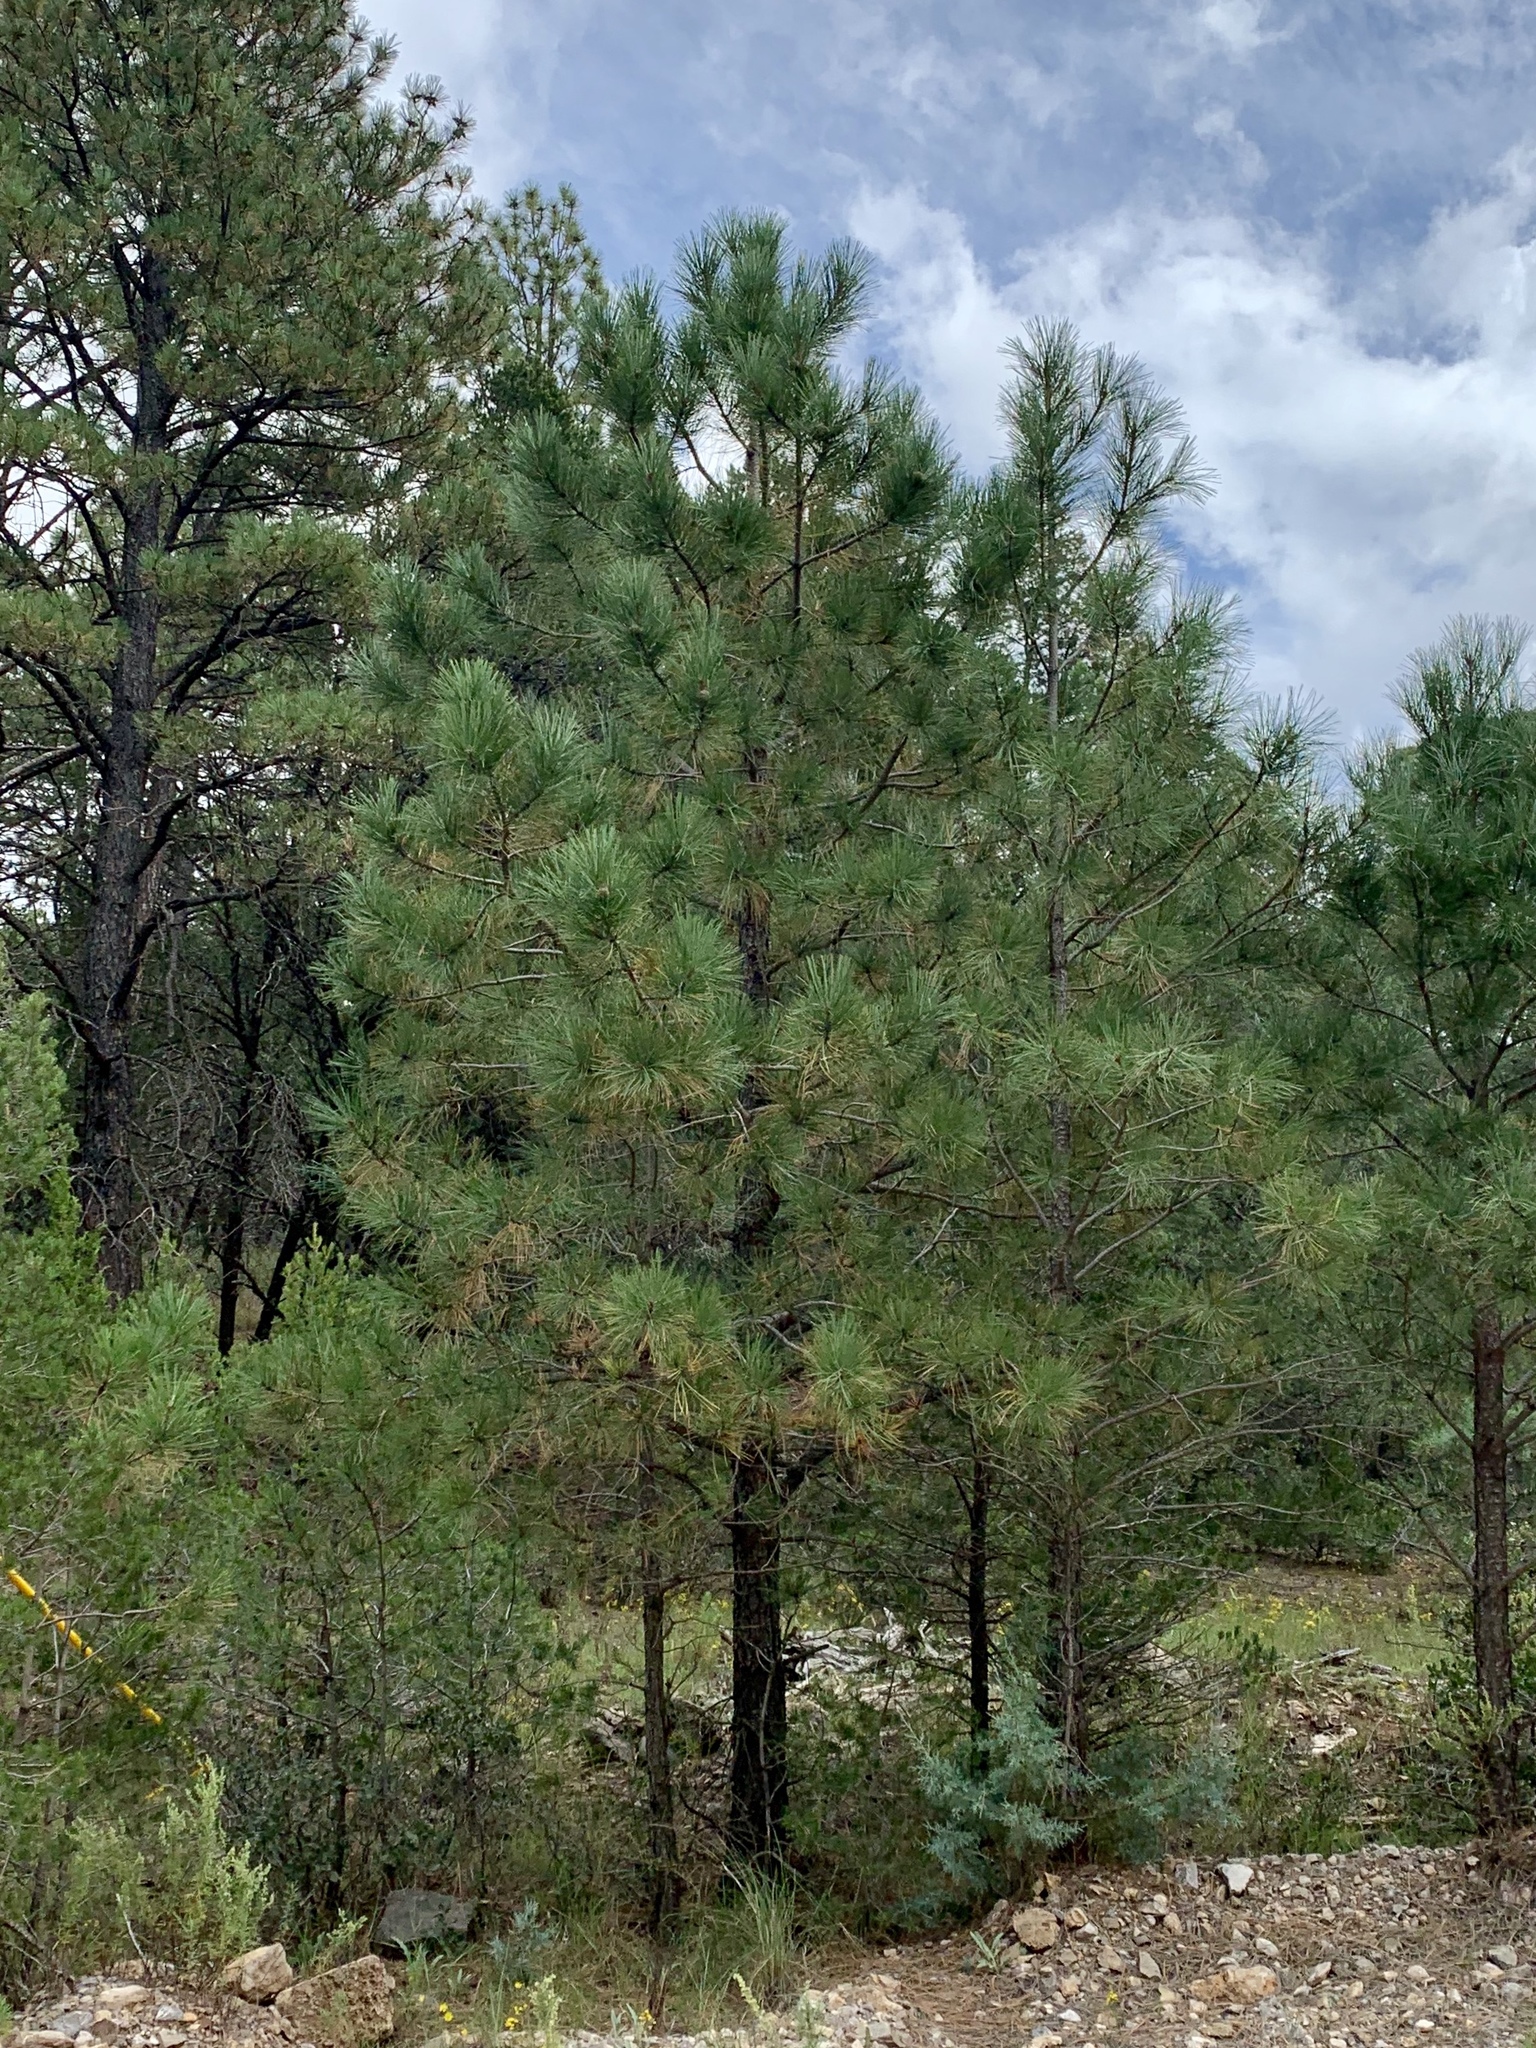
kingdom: Plantae
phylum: Tracheophyta
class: Pinopsida
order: Pinales
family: Pinaceae
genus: Pinus
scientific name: Pinus ponderosa
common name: Western yellow-pine
